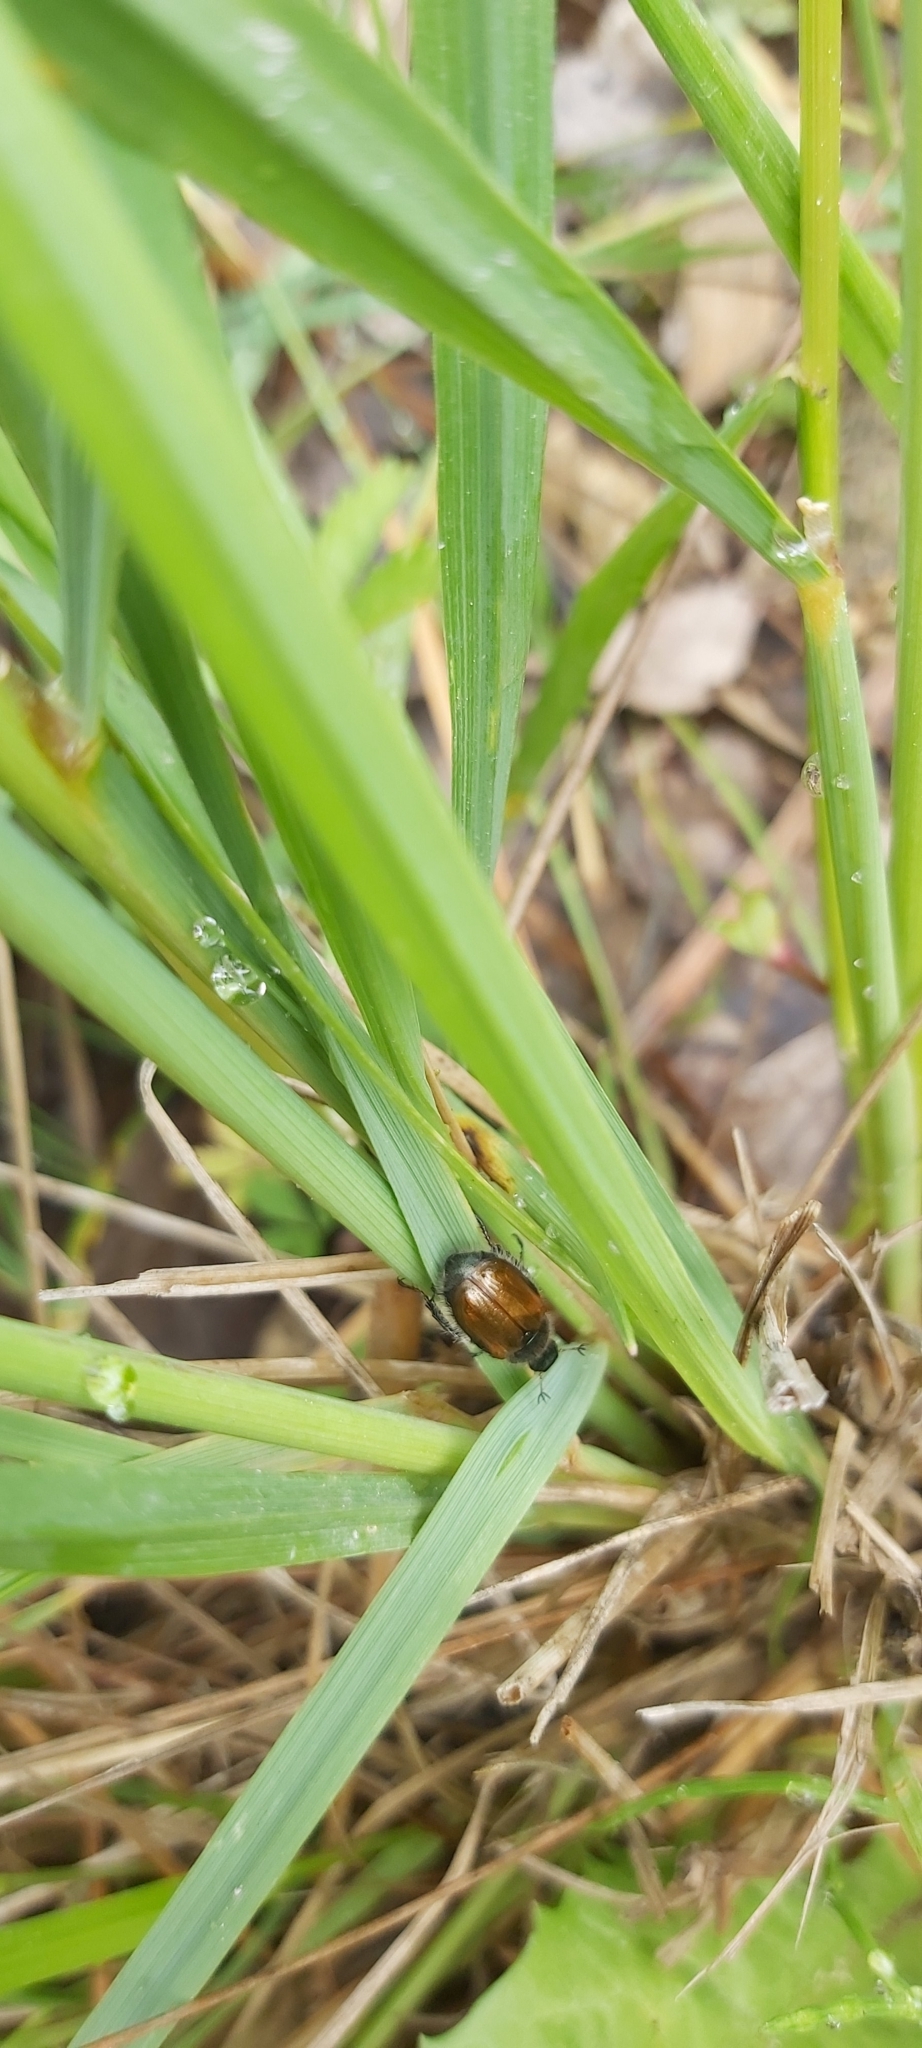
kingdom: Animalia
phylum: Arthropoda
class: Insecta
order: Coleoptera
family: Scarabaeidae
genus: Phyllopertha
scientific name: Phyllopertha horticola
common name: Garden chafer
